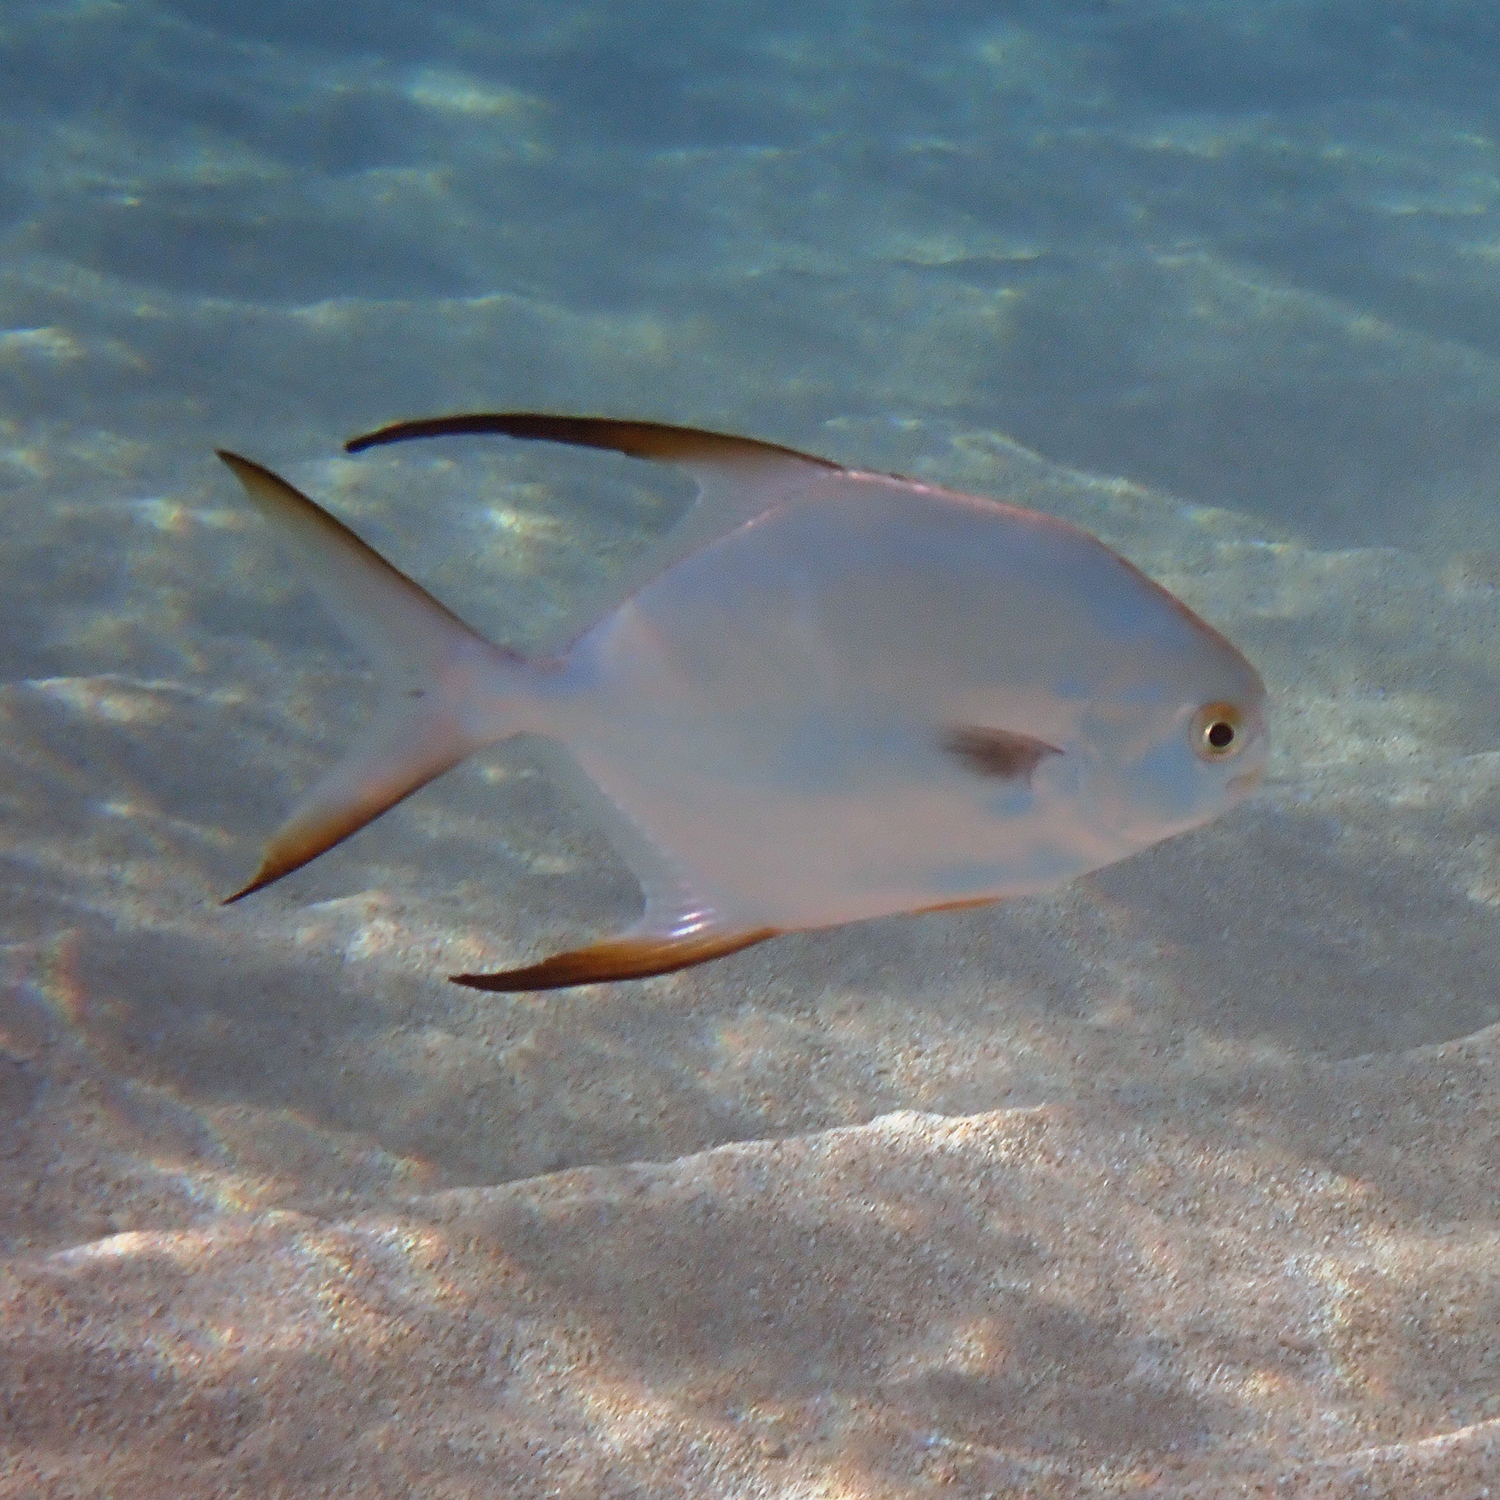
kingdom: Animalia
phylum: Chordata
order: Perciformes
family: Carangidae
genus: Trachinotus
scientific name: Trachinotus blochii
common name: Snubnose pompano
